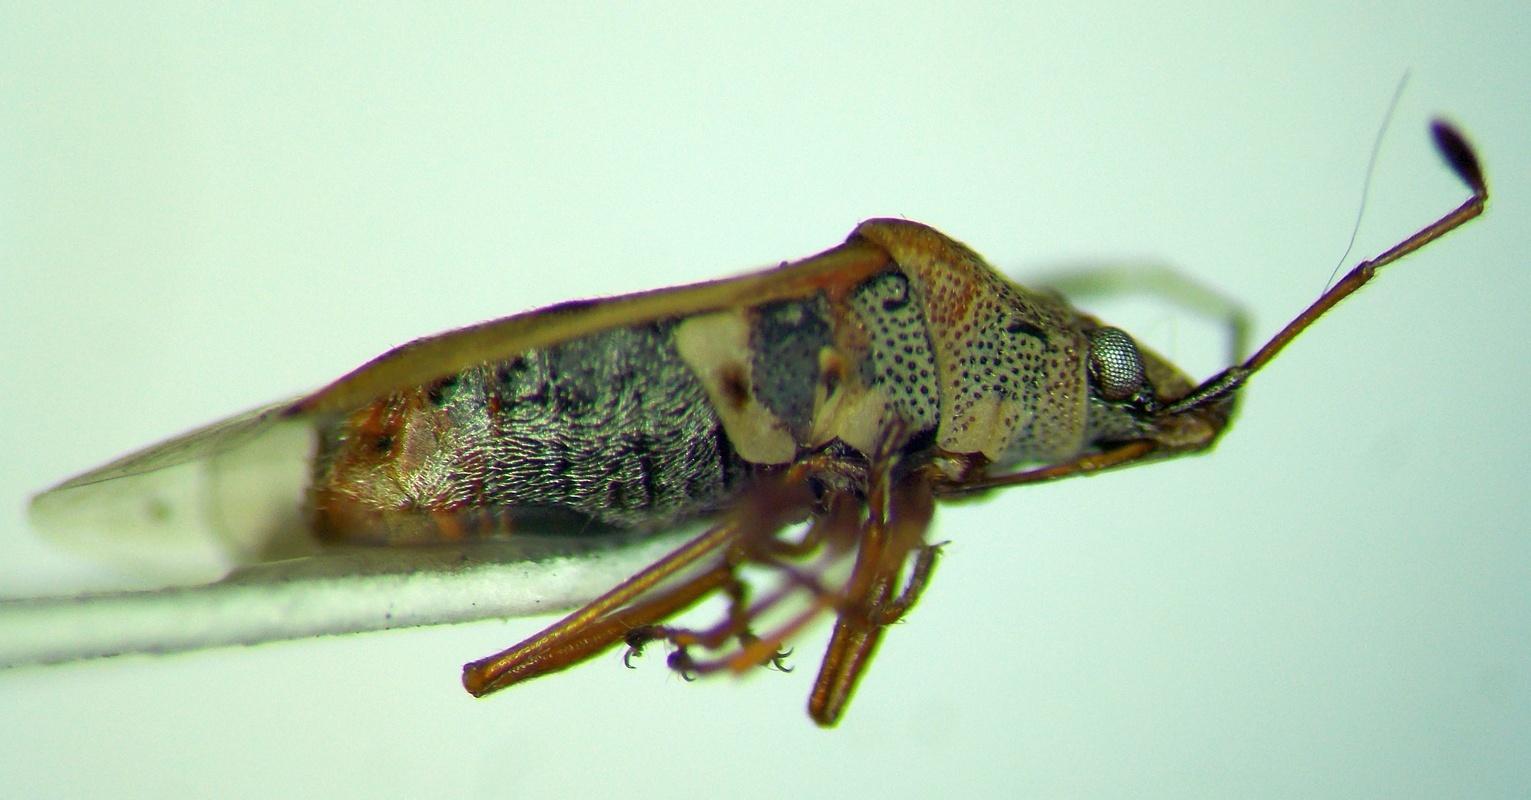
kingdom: Animalia
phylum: Arthropoda
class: Insecta
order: Hemiptera
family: Lygaeidae
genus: Kleidocerys
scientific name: Kleidocerys resedae
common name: Birch catkin bug
